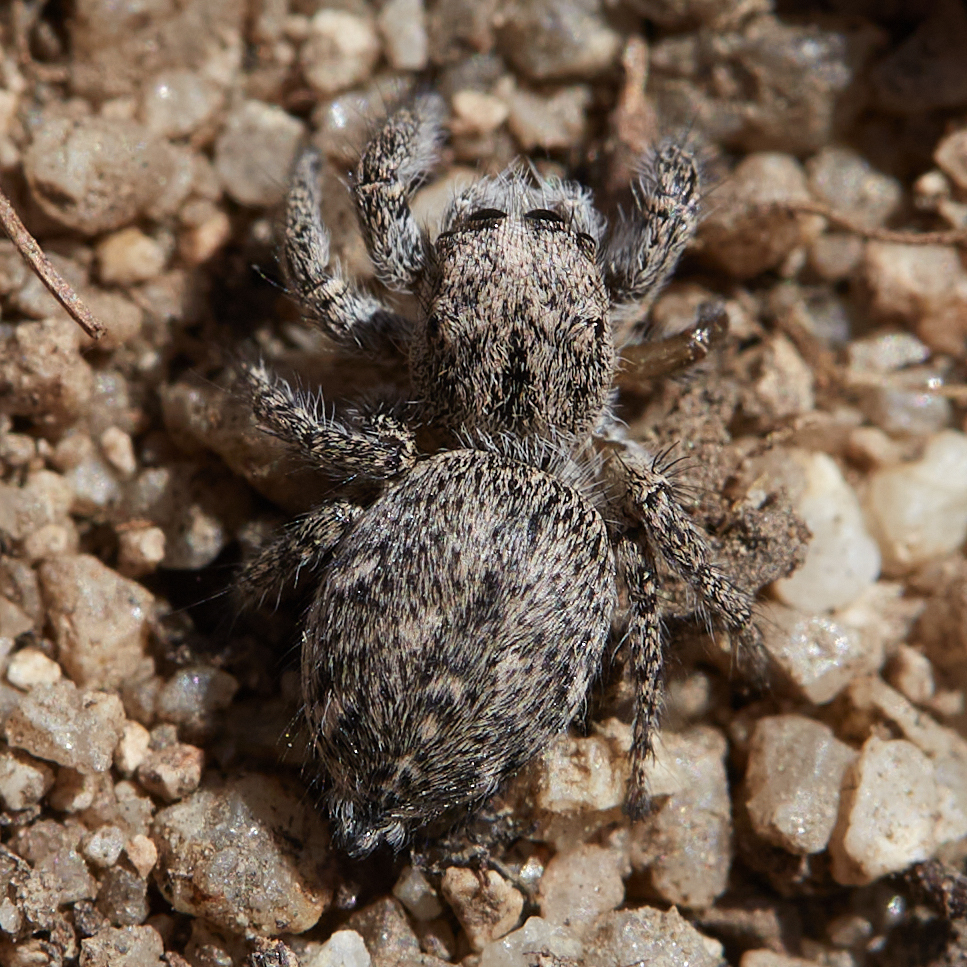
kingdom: Animalia
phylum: Arthropoda
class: Arachnida
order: Araneae
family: Salticidae
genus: Habronattus
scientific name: Habronattus hirsutus
